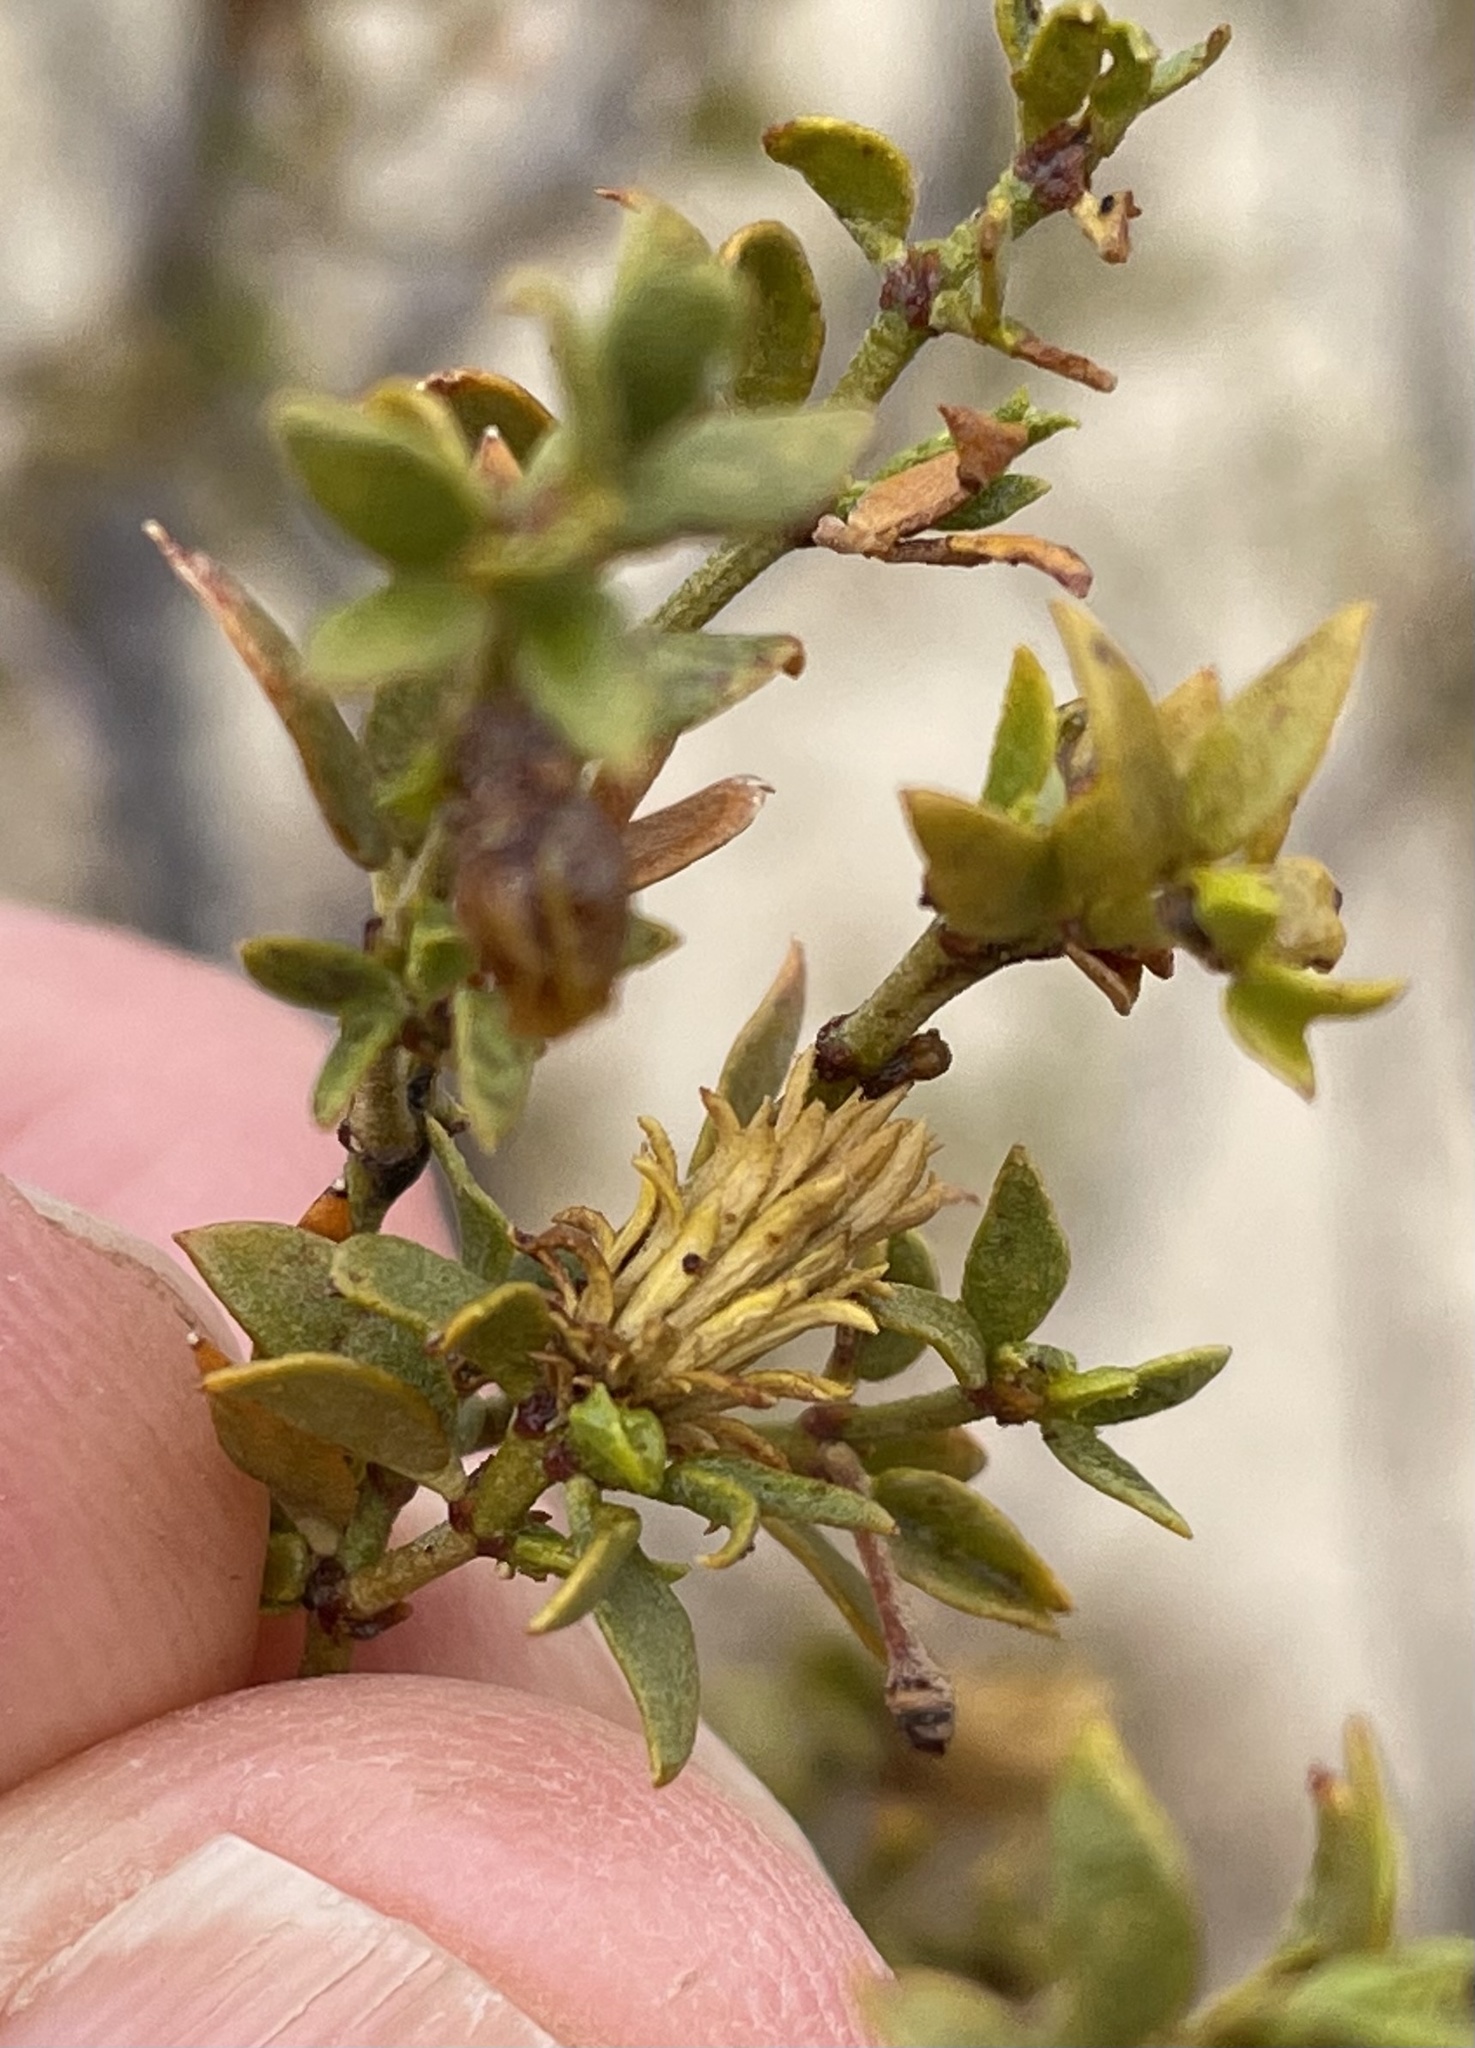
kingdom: Animalia
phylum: Arthropoda
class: Insecta
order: Diptera
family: Cecidomyiidae
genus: Asphondylia
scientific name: Asphondylia rosetta
